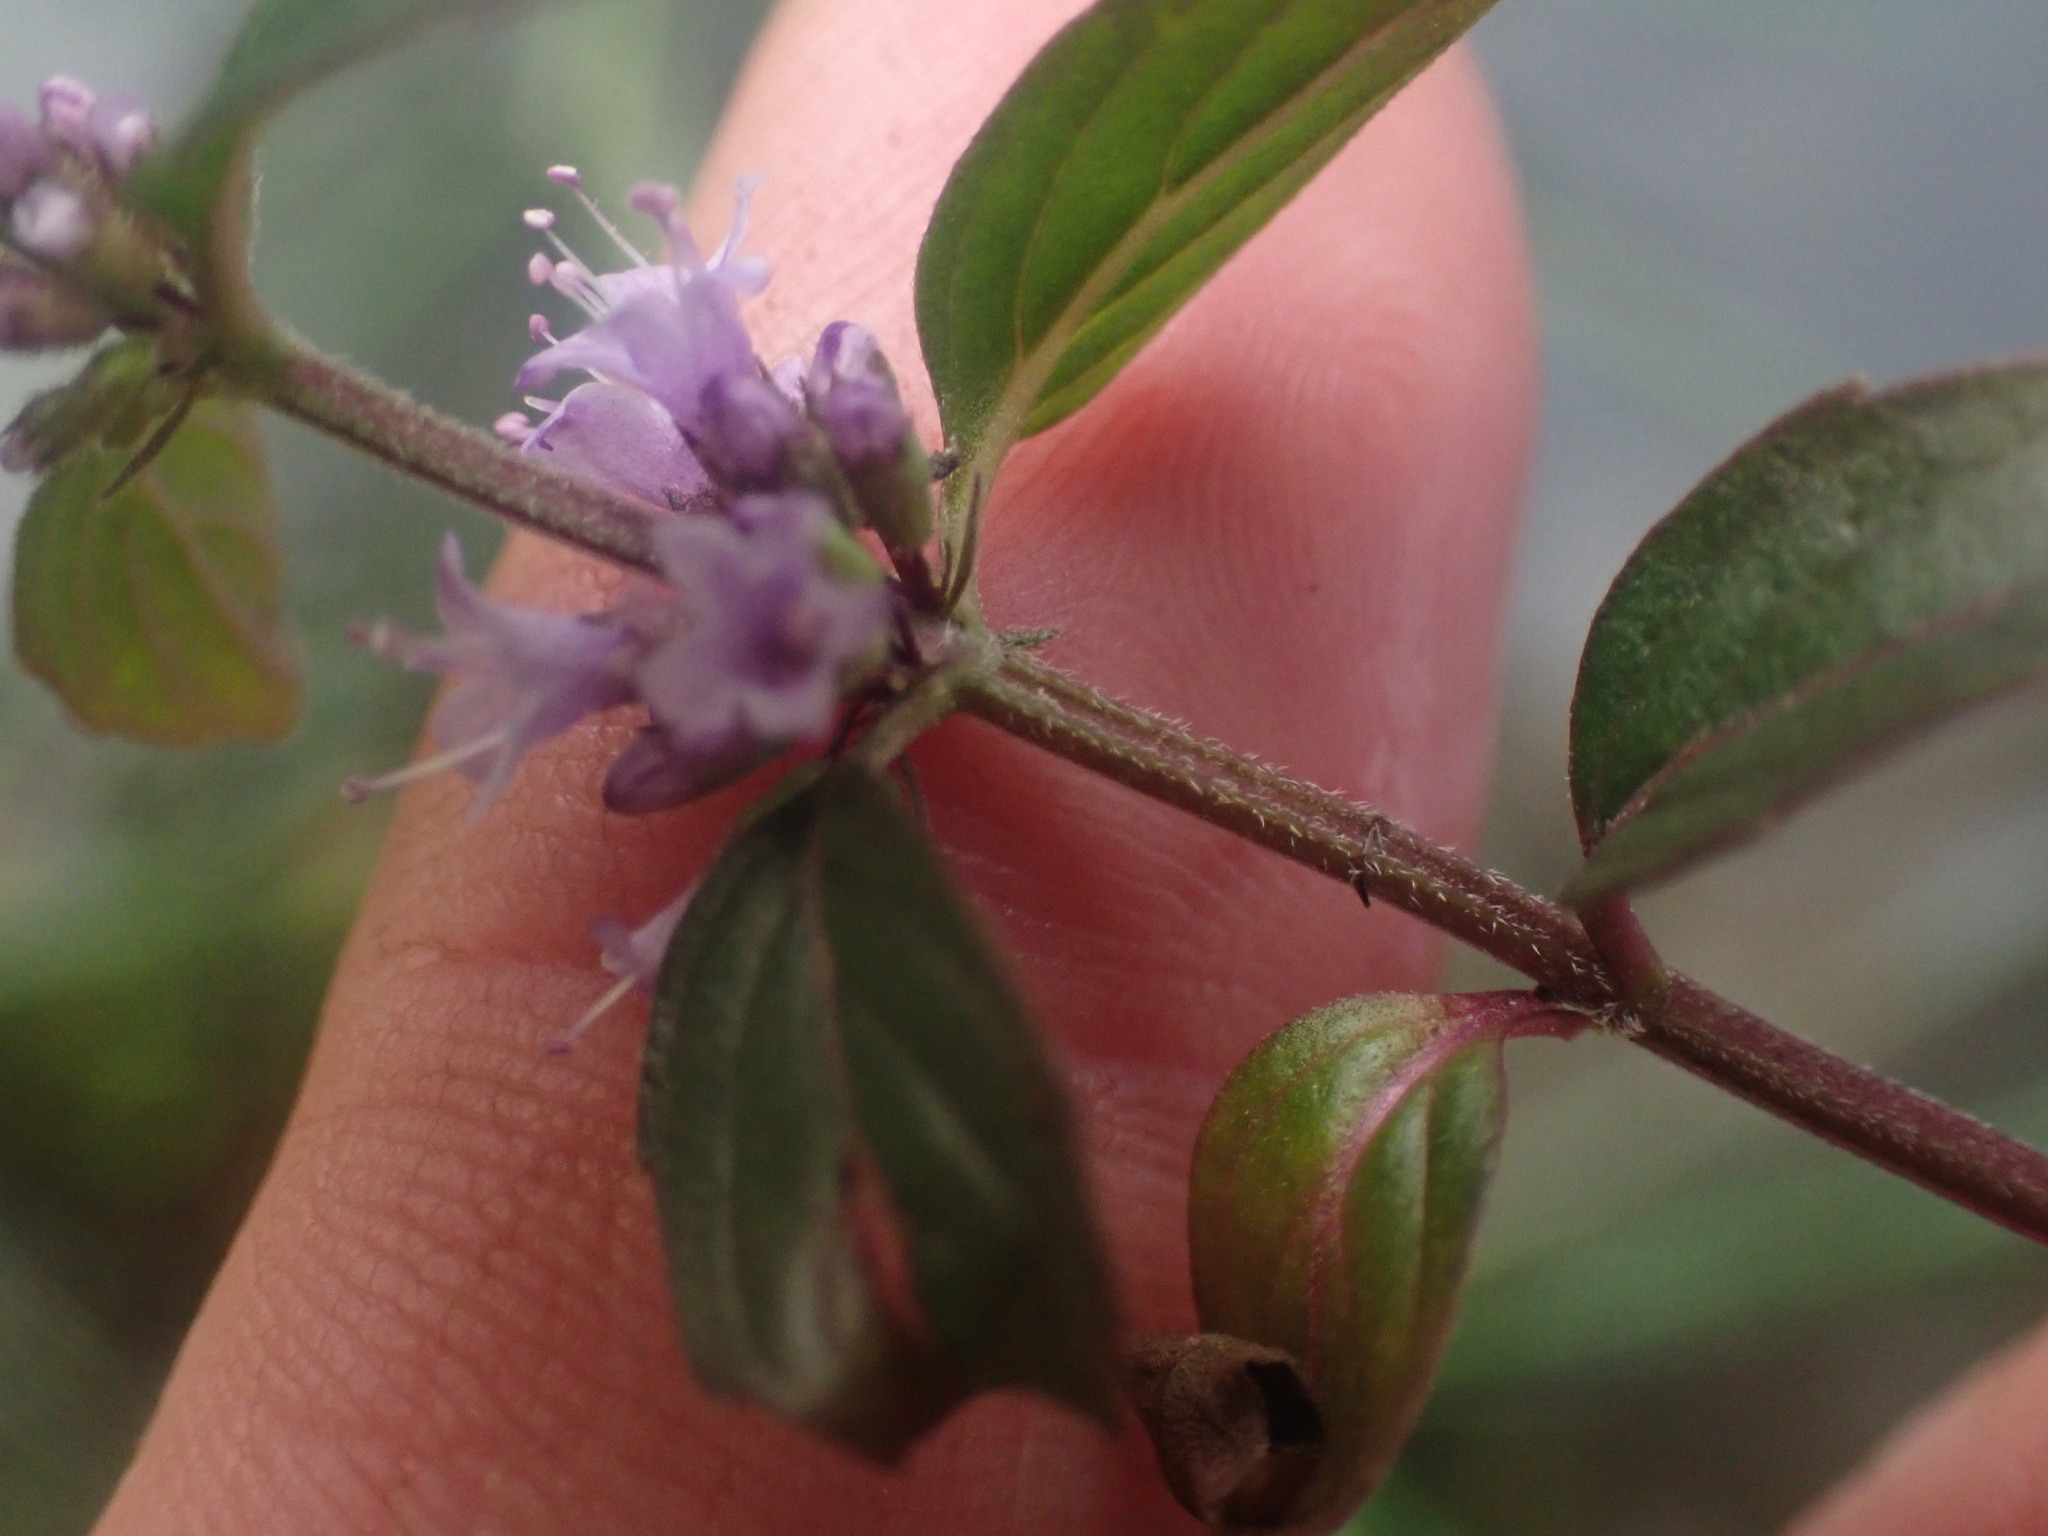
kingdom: Plantae
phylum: Tracheophyta
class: Magnoliopsida
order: Lamiales
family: Lamiaceae
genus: Mentha
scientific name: Mentha canadensis
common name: American corn mint
